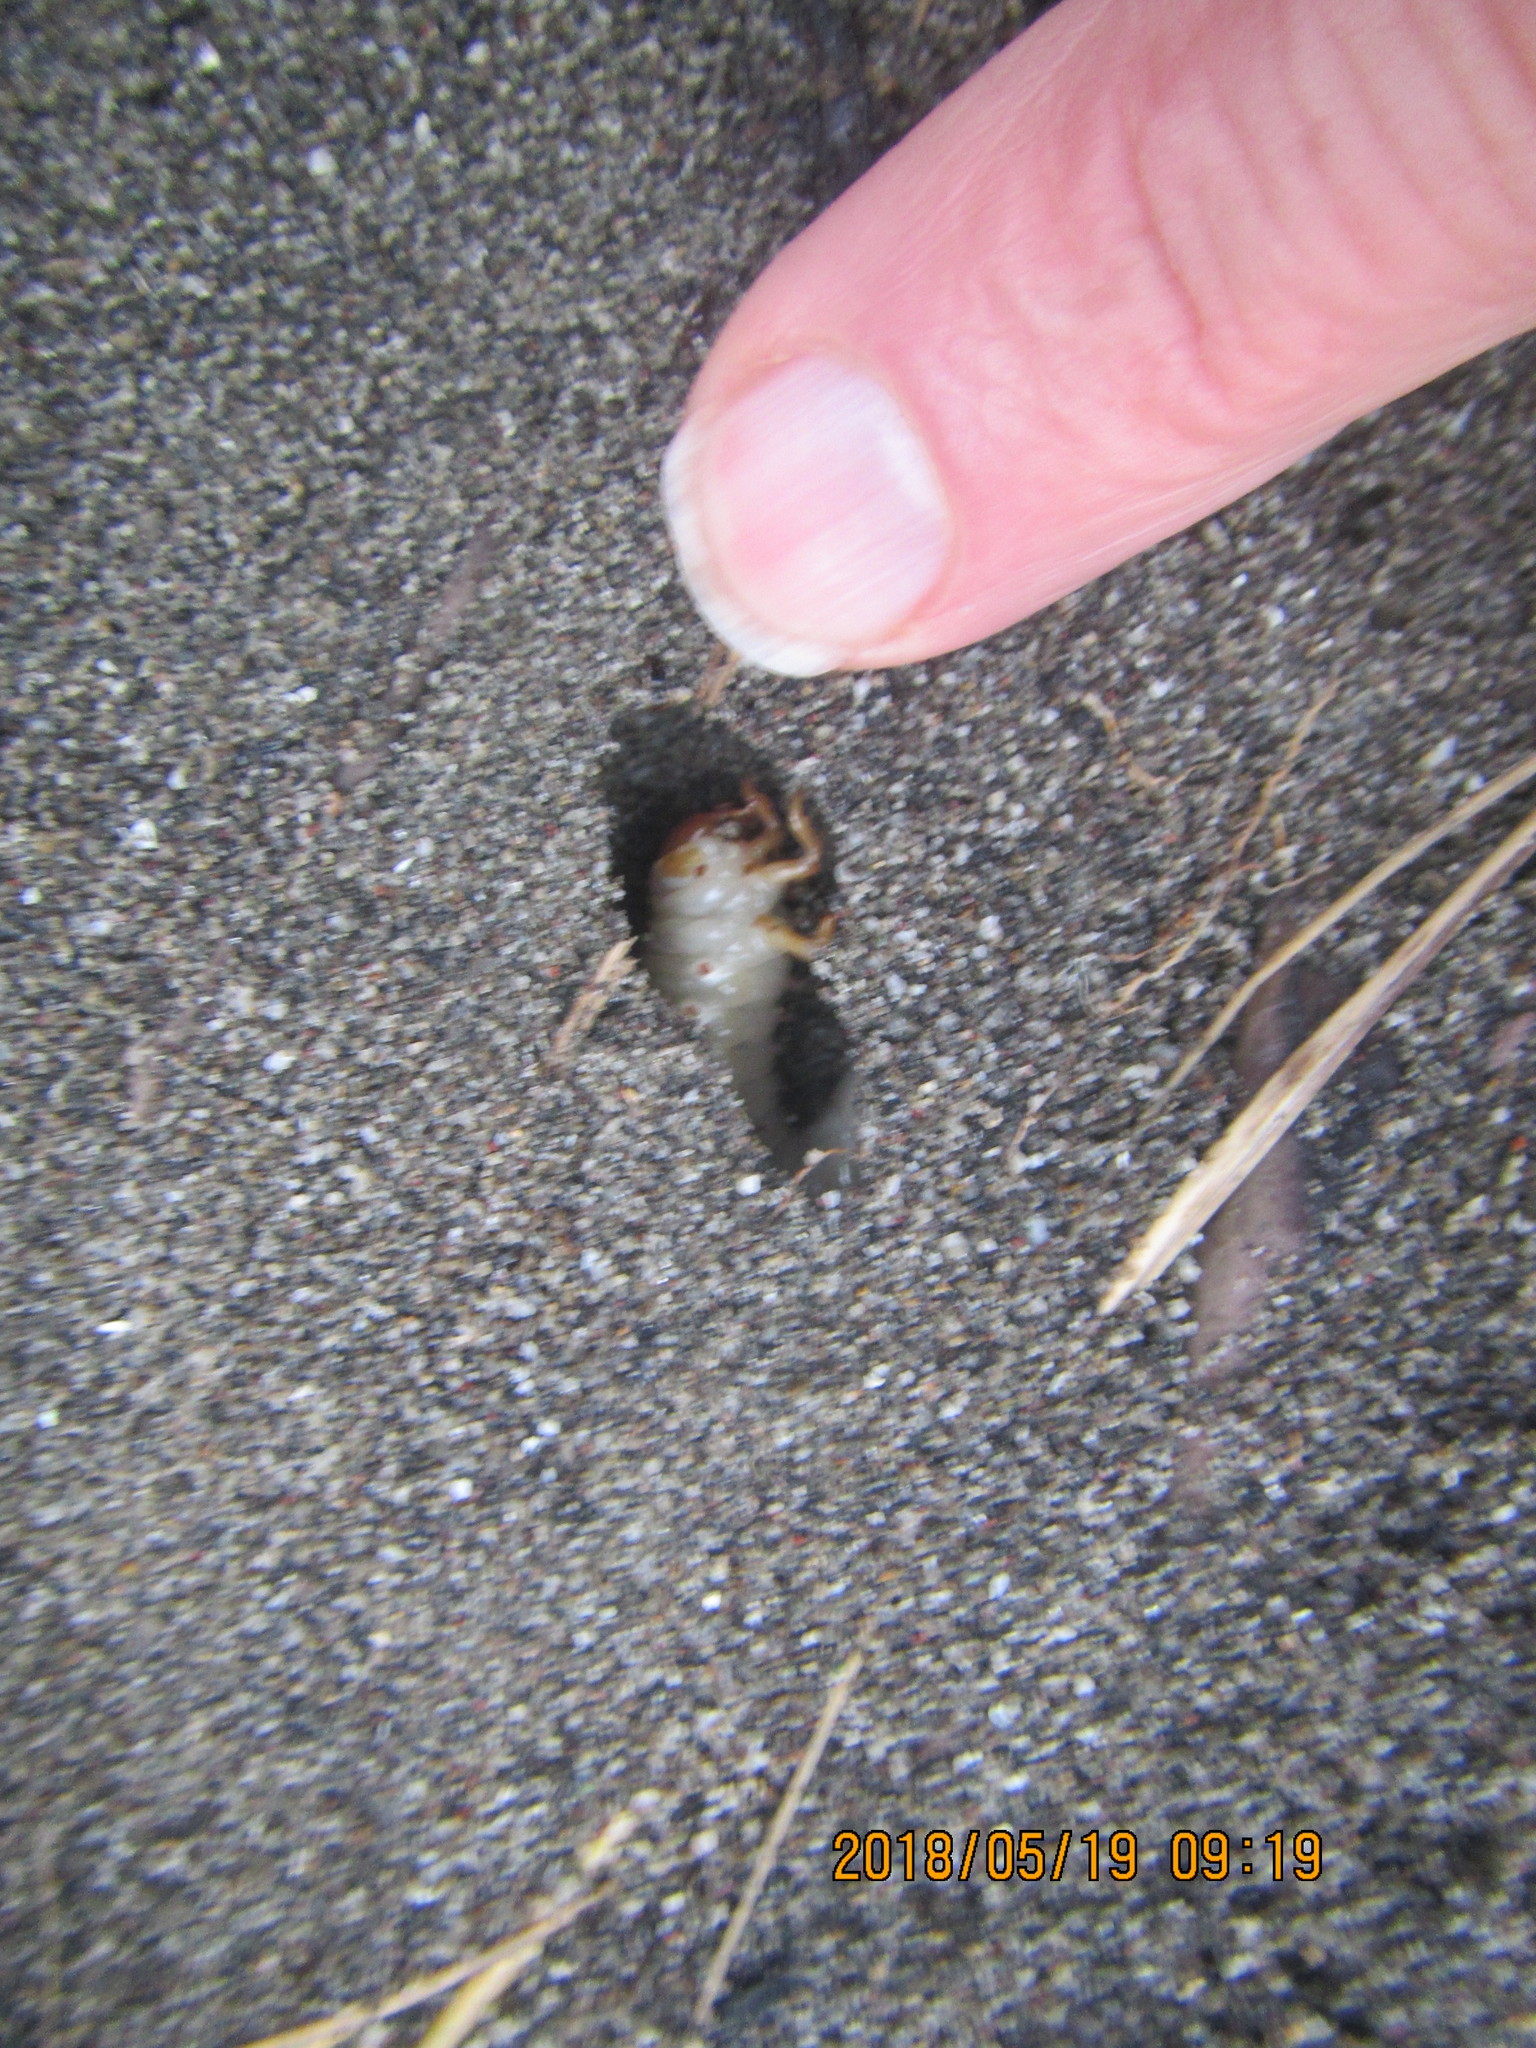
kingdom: Animalia
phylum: Arthropoda
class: Insecta
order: Coleoptera
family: Scarabaeidae
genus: Pericoptus
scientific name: Pericoptus truncatus
